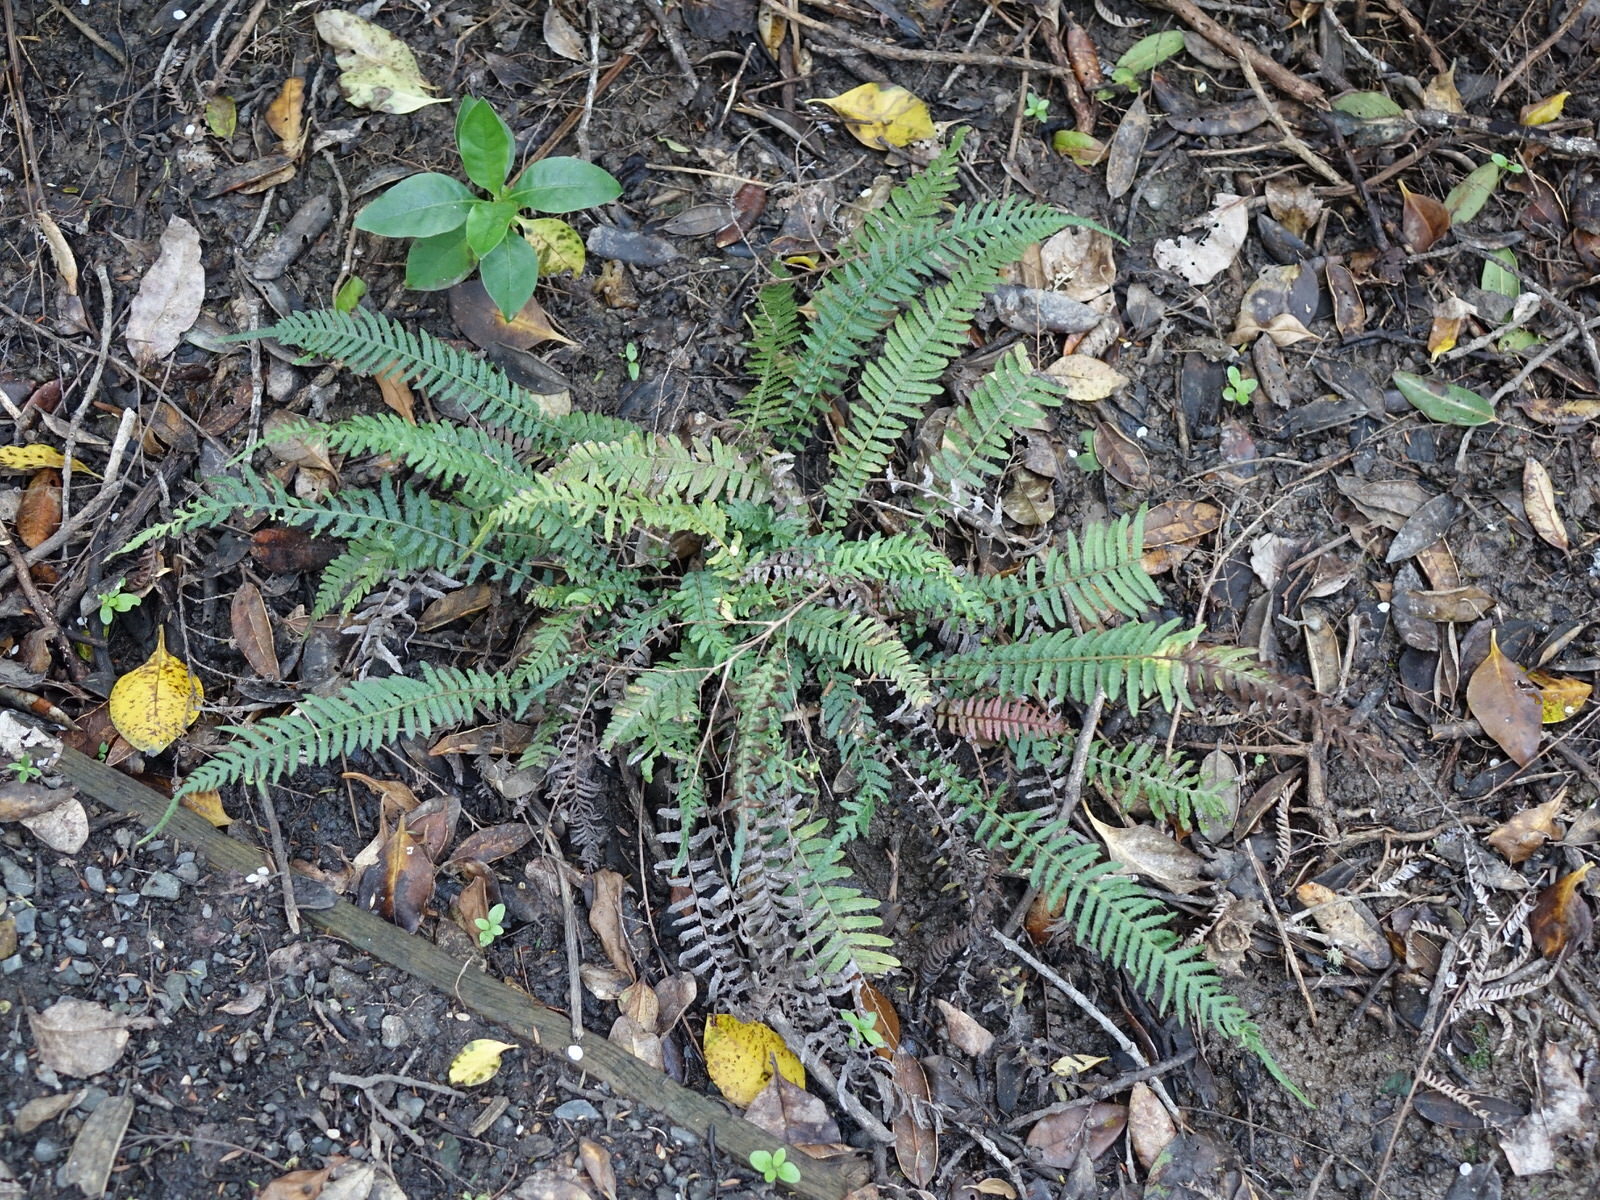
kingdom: Plantae
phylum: Tracheophyta
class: Polypodiopsida
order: Polypodiales
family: Blechnaceae
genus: Doodia
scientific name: Doodia australis
